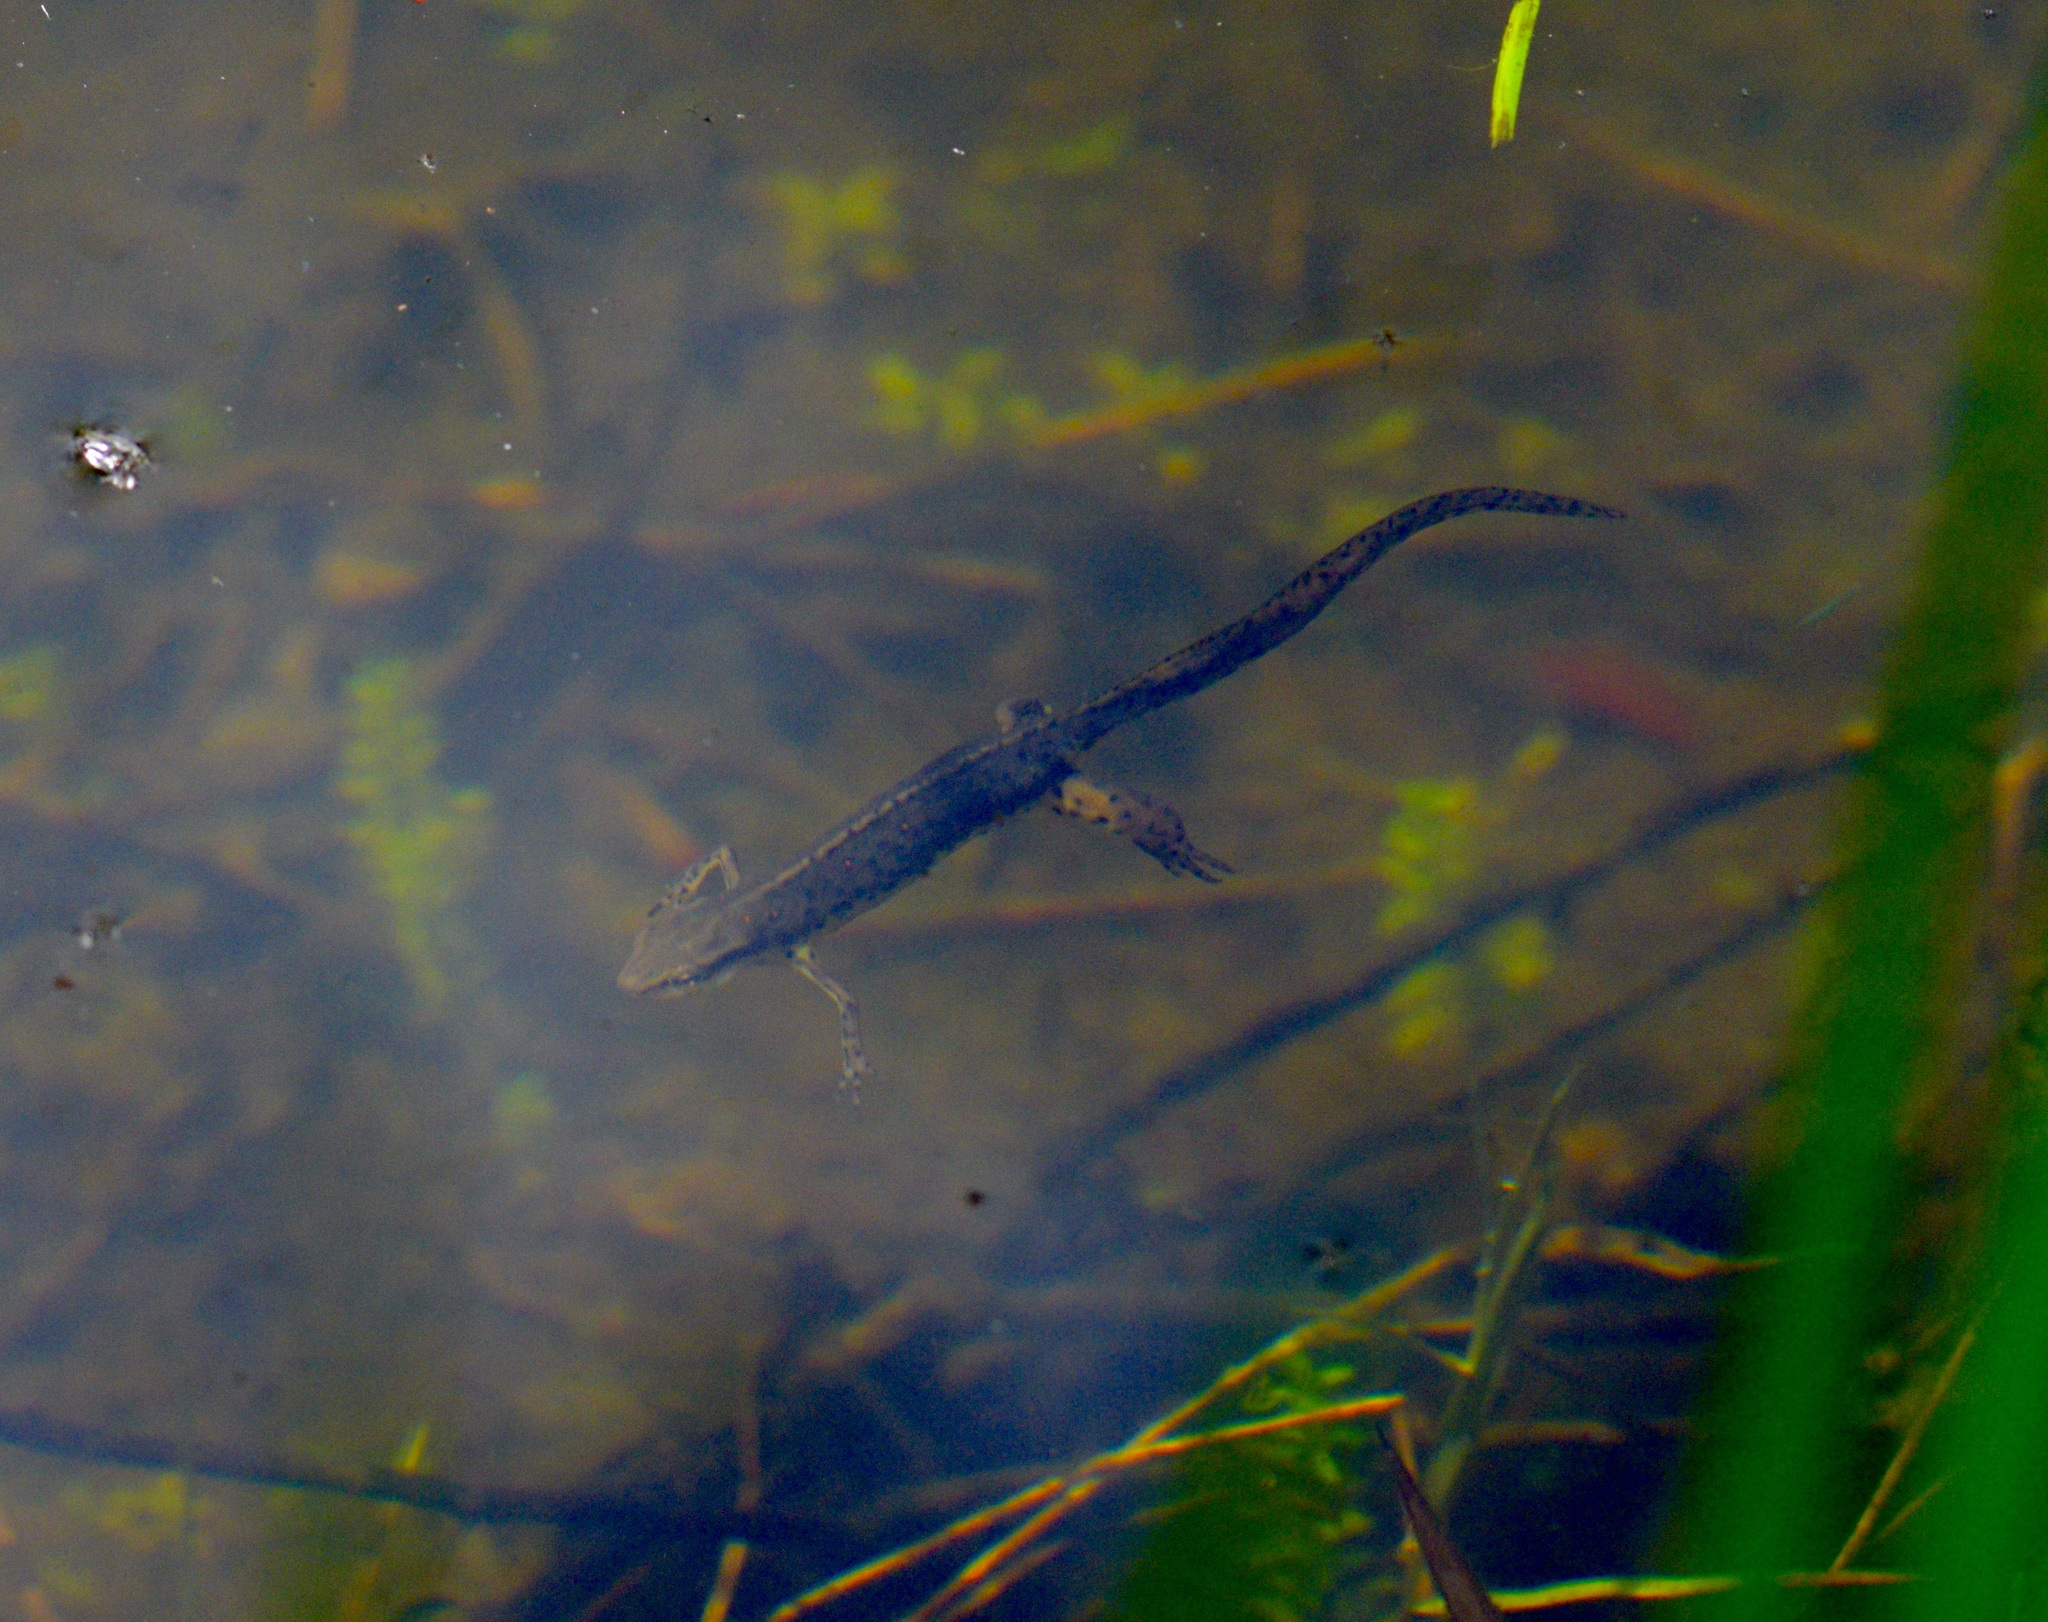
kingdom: Animalia
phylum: Chordata
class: Amphibia
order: Caudata
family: Salamandridae
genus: Notophthalmus
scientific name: Notophthalmus viridescens
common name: Eastern newt
